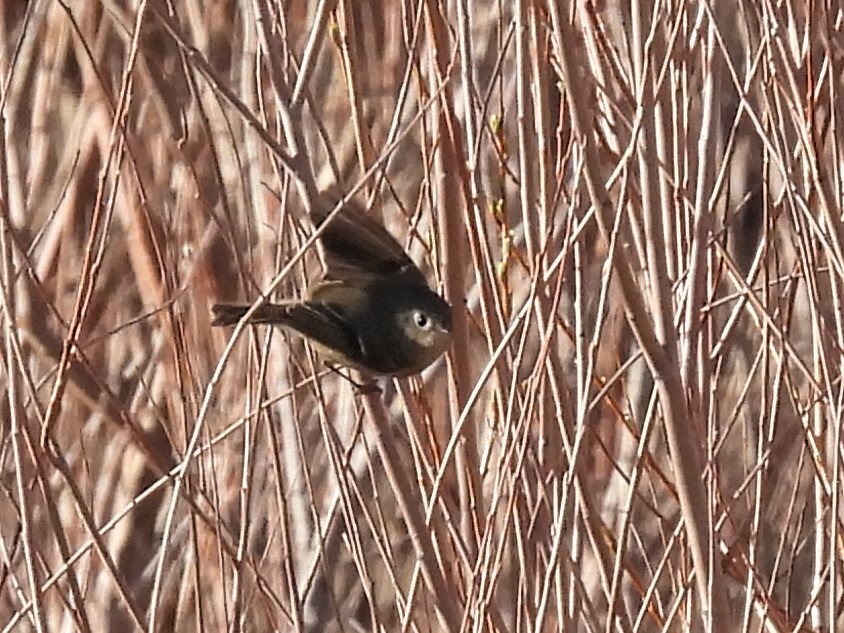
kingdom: Animalia
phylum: Chordata
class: Aves
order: Passeriformes
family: Regulidae
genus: Regulus
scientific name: Regulus calendula
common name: Ruby-crowned kinglet
